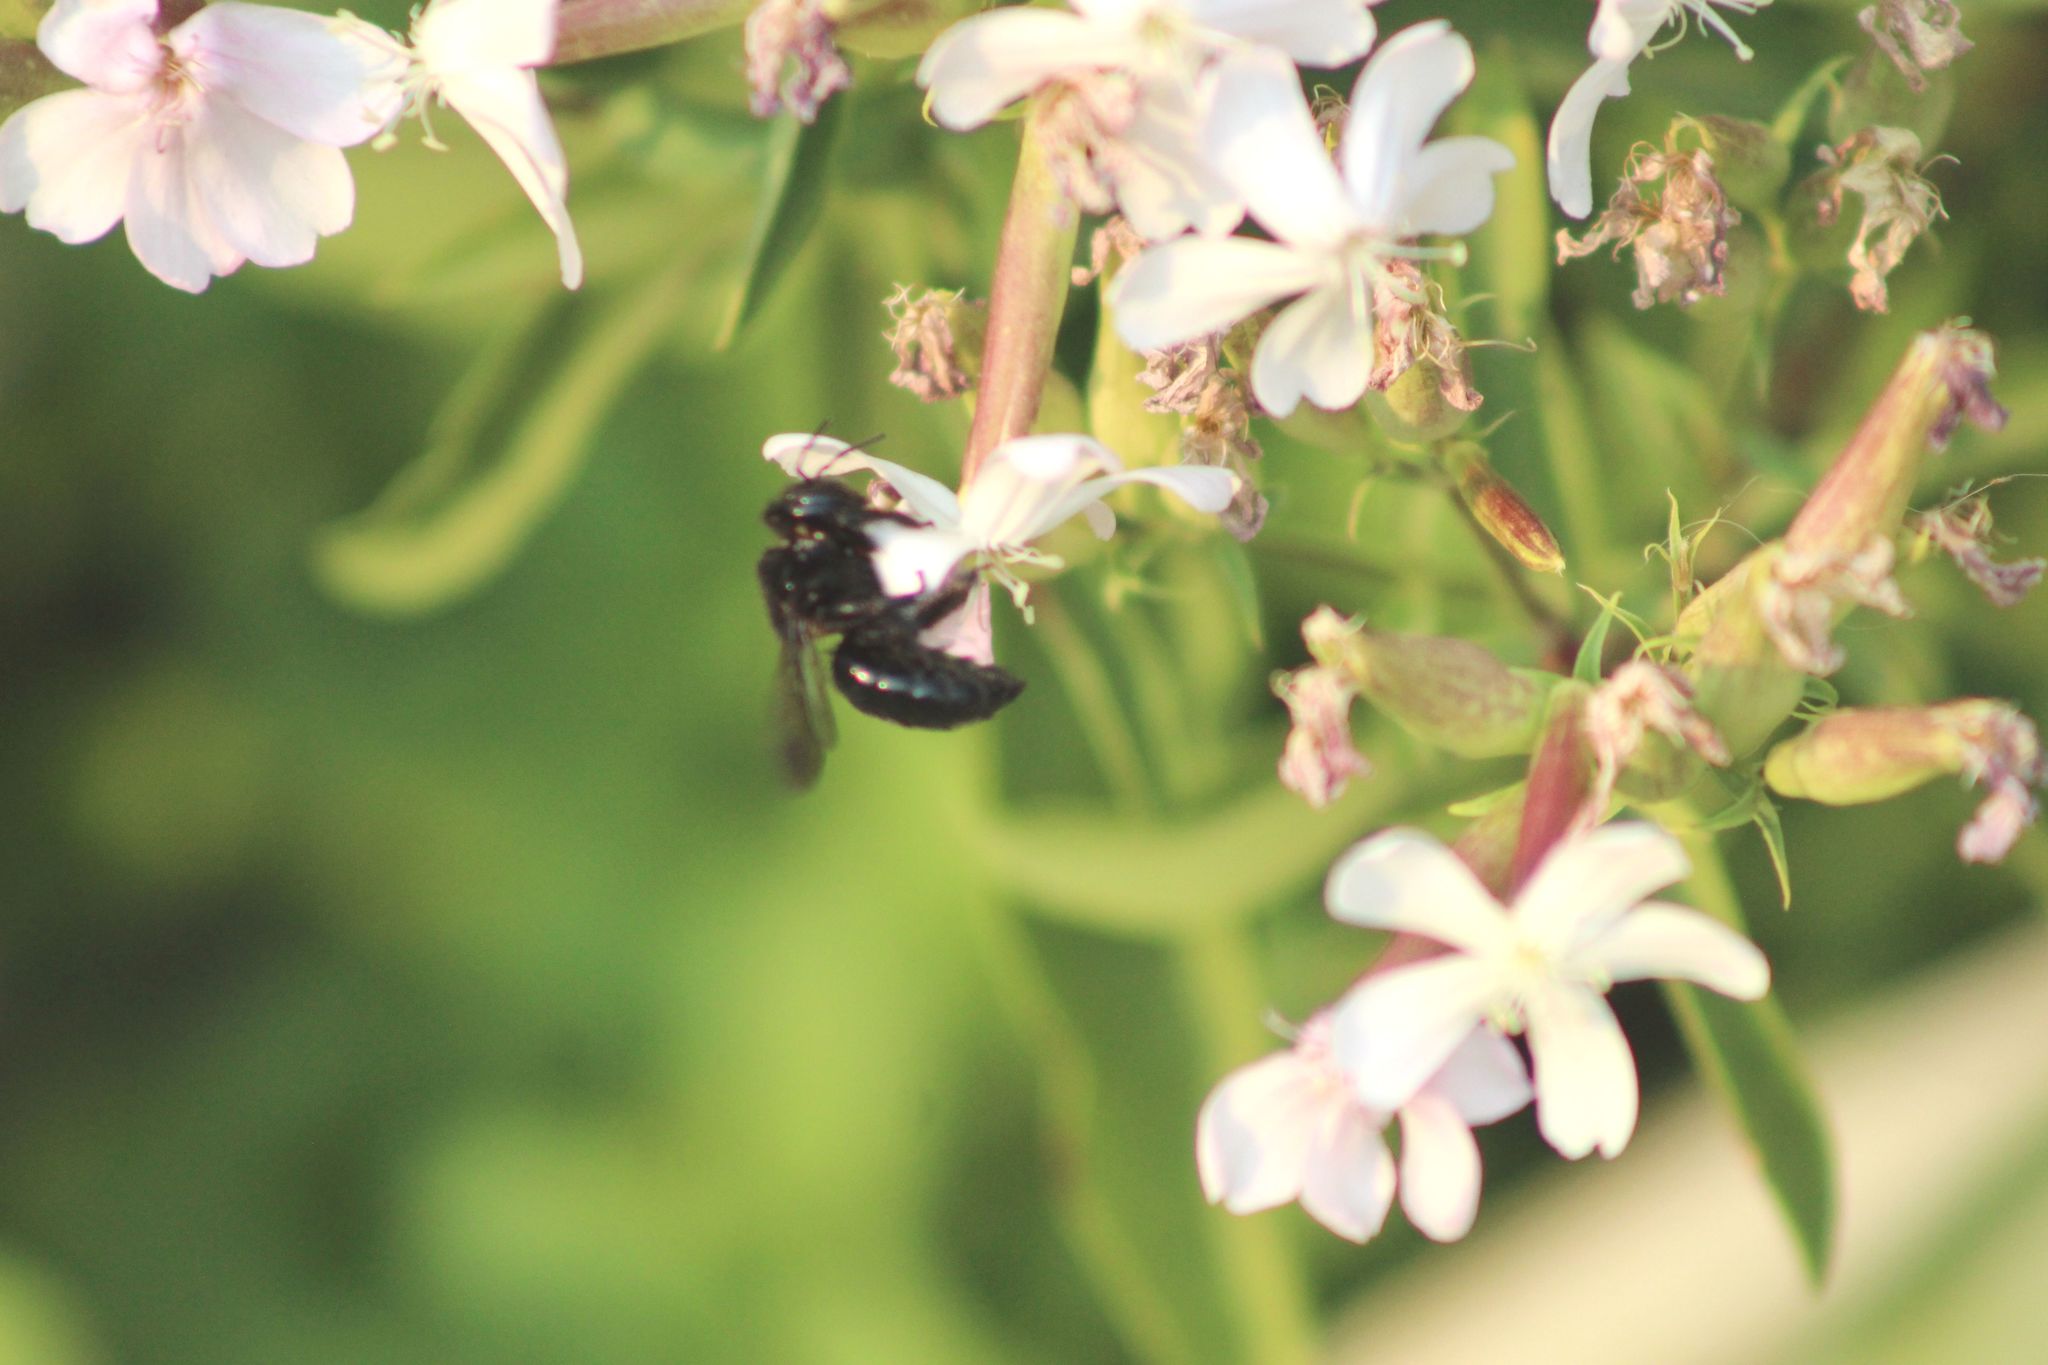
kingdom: Animalia
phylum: Arthropoda
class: Insecta
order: Hymenoptera
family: Apidae
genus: Xylocopa
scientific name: Xylocopa
